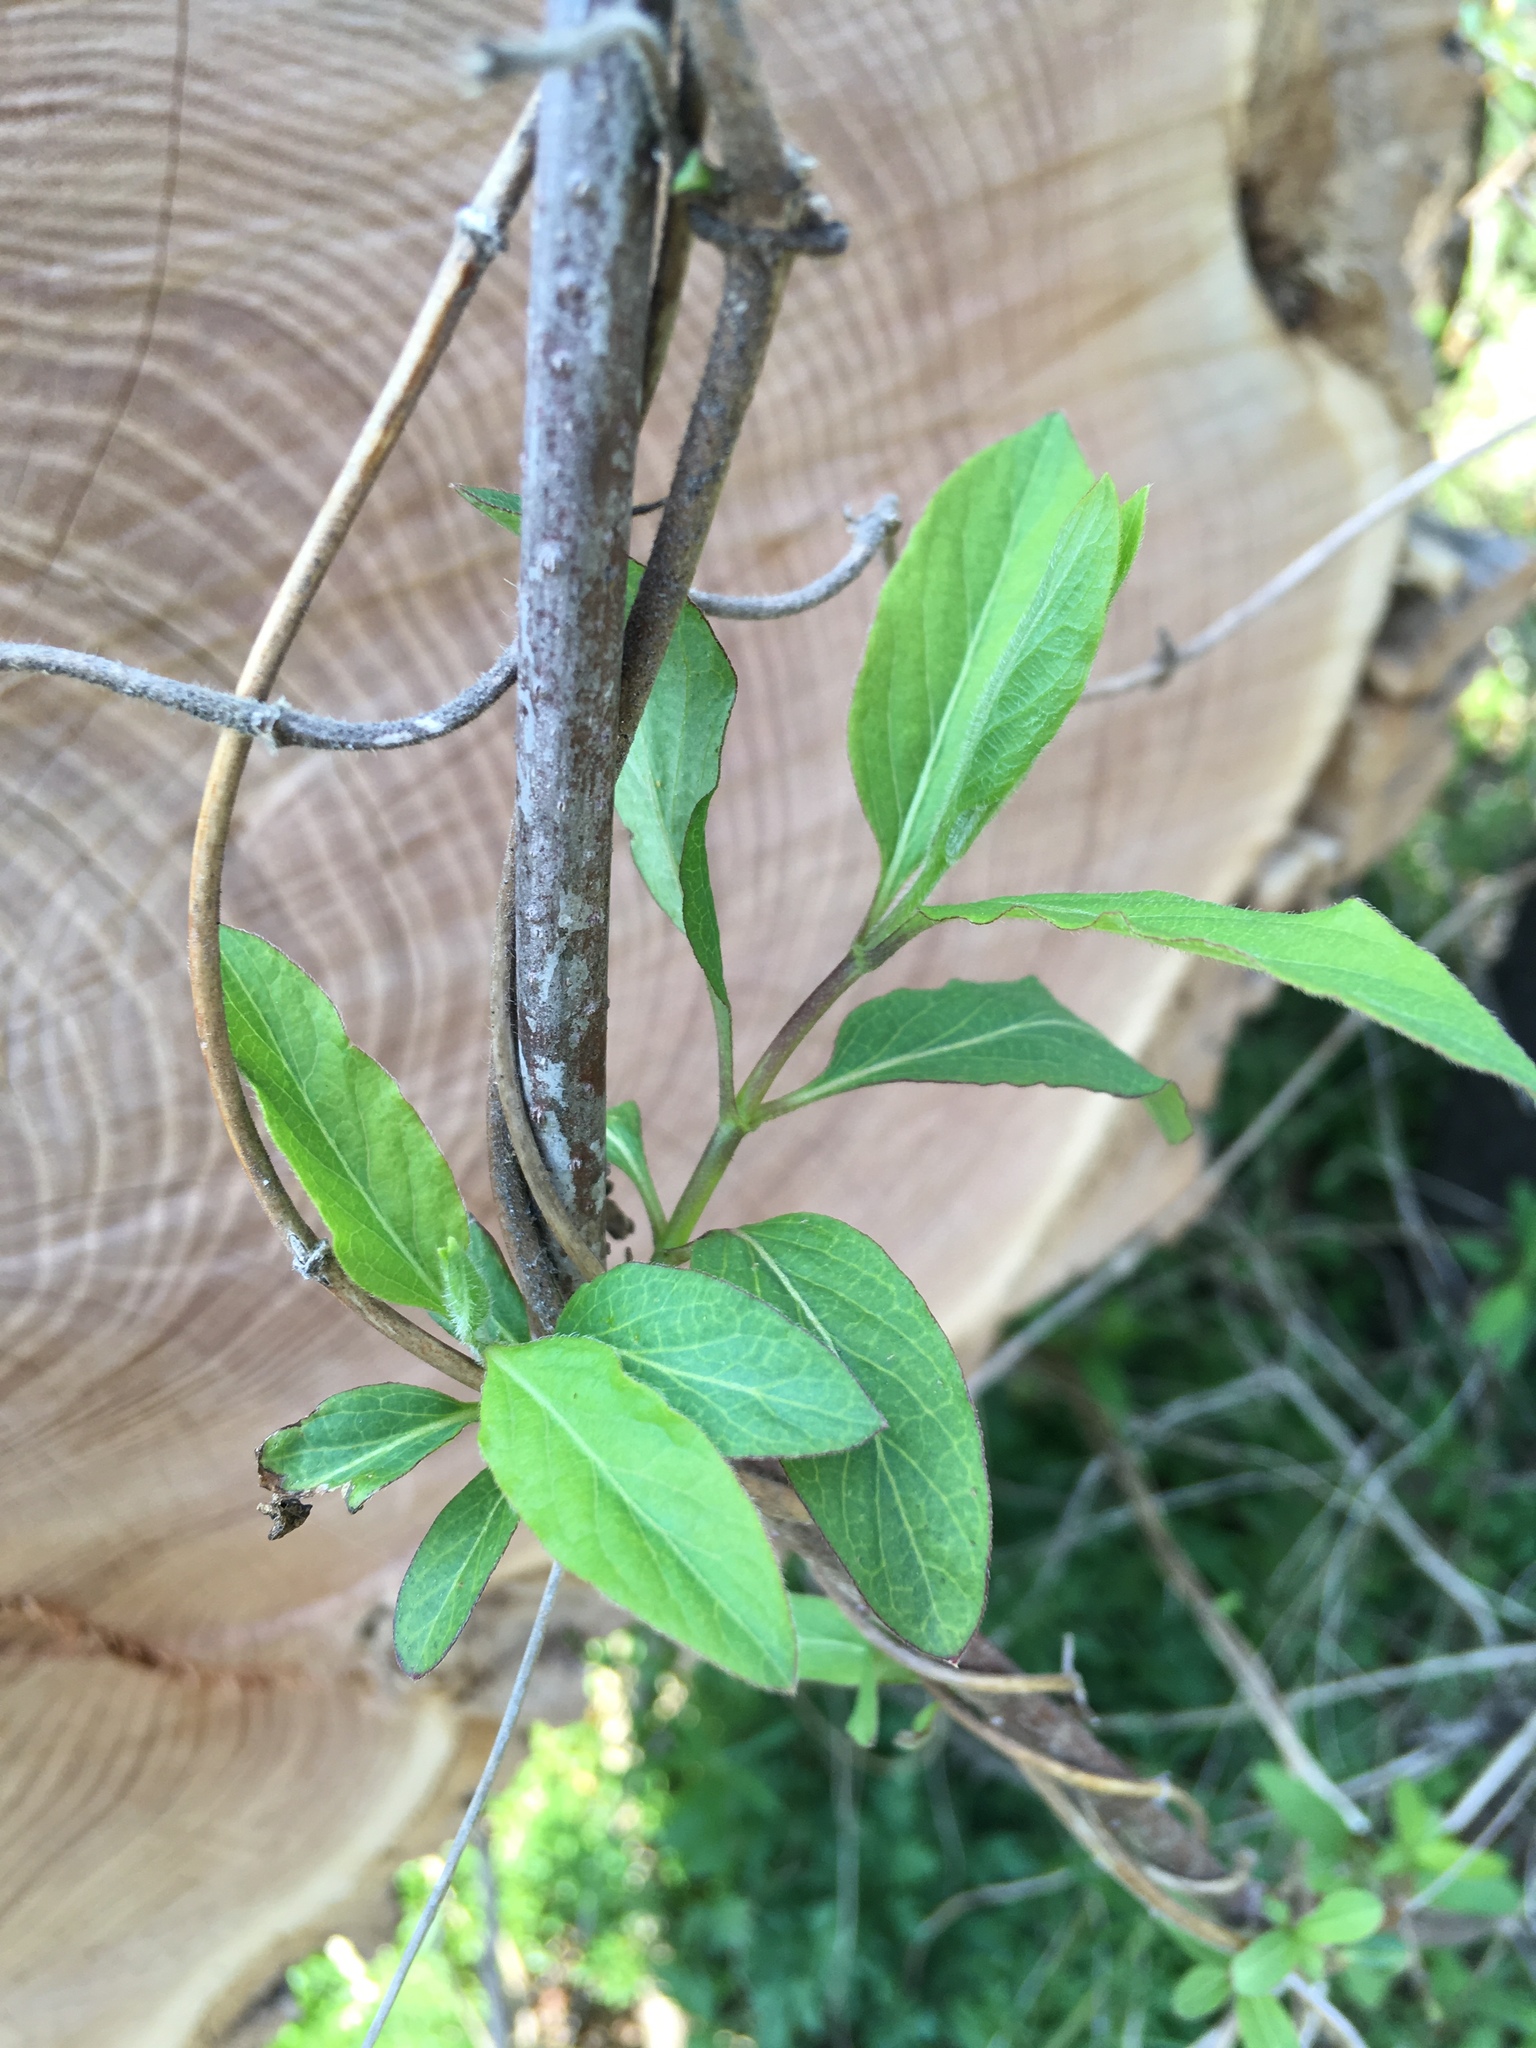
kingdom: Plantae
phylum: Tracheophyta
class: Magnoliopsida
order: Dipsacales
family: Caprifoliaceae
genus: Lonicera
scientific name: Lonicera japonica
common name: Japanese honeysuckle
